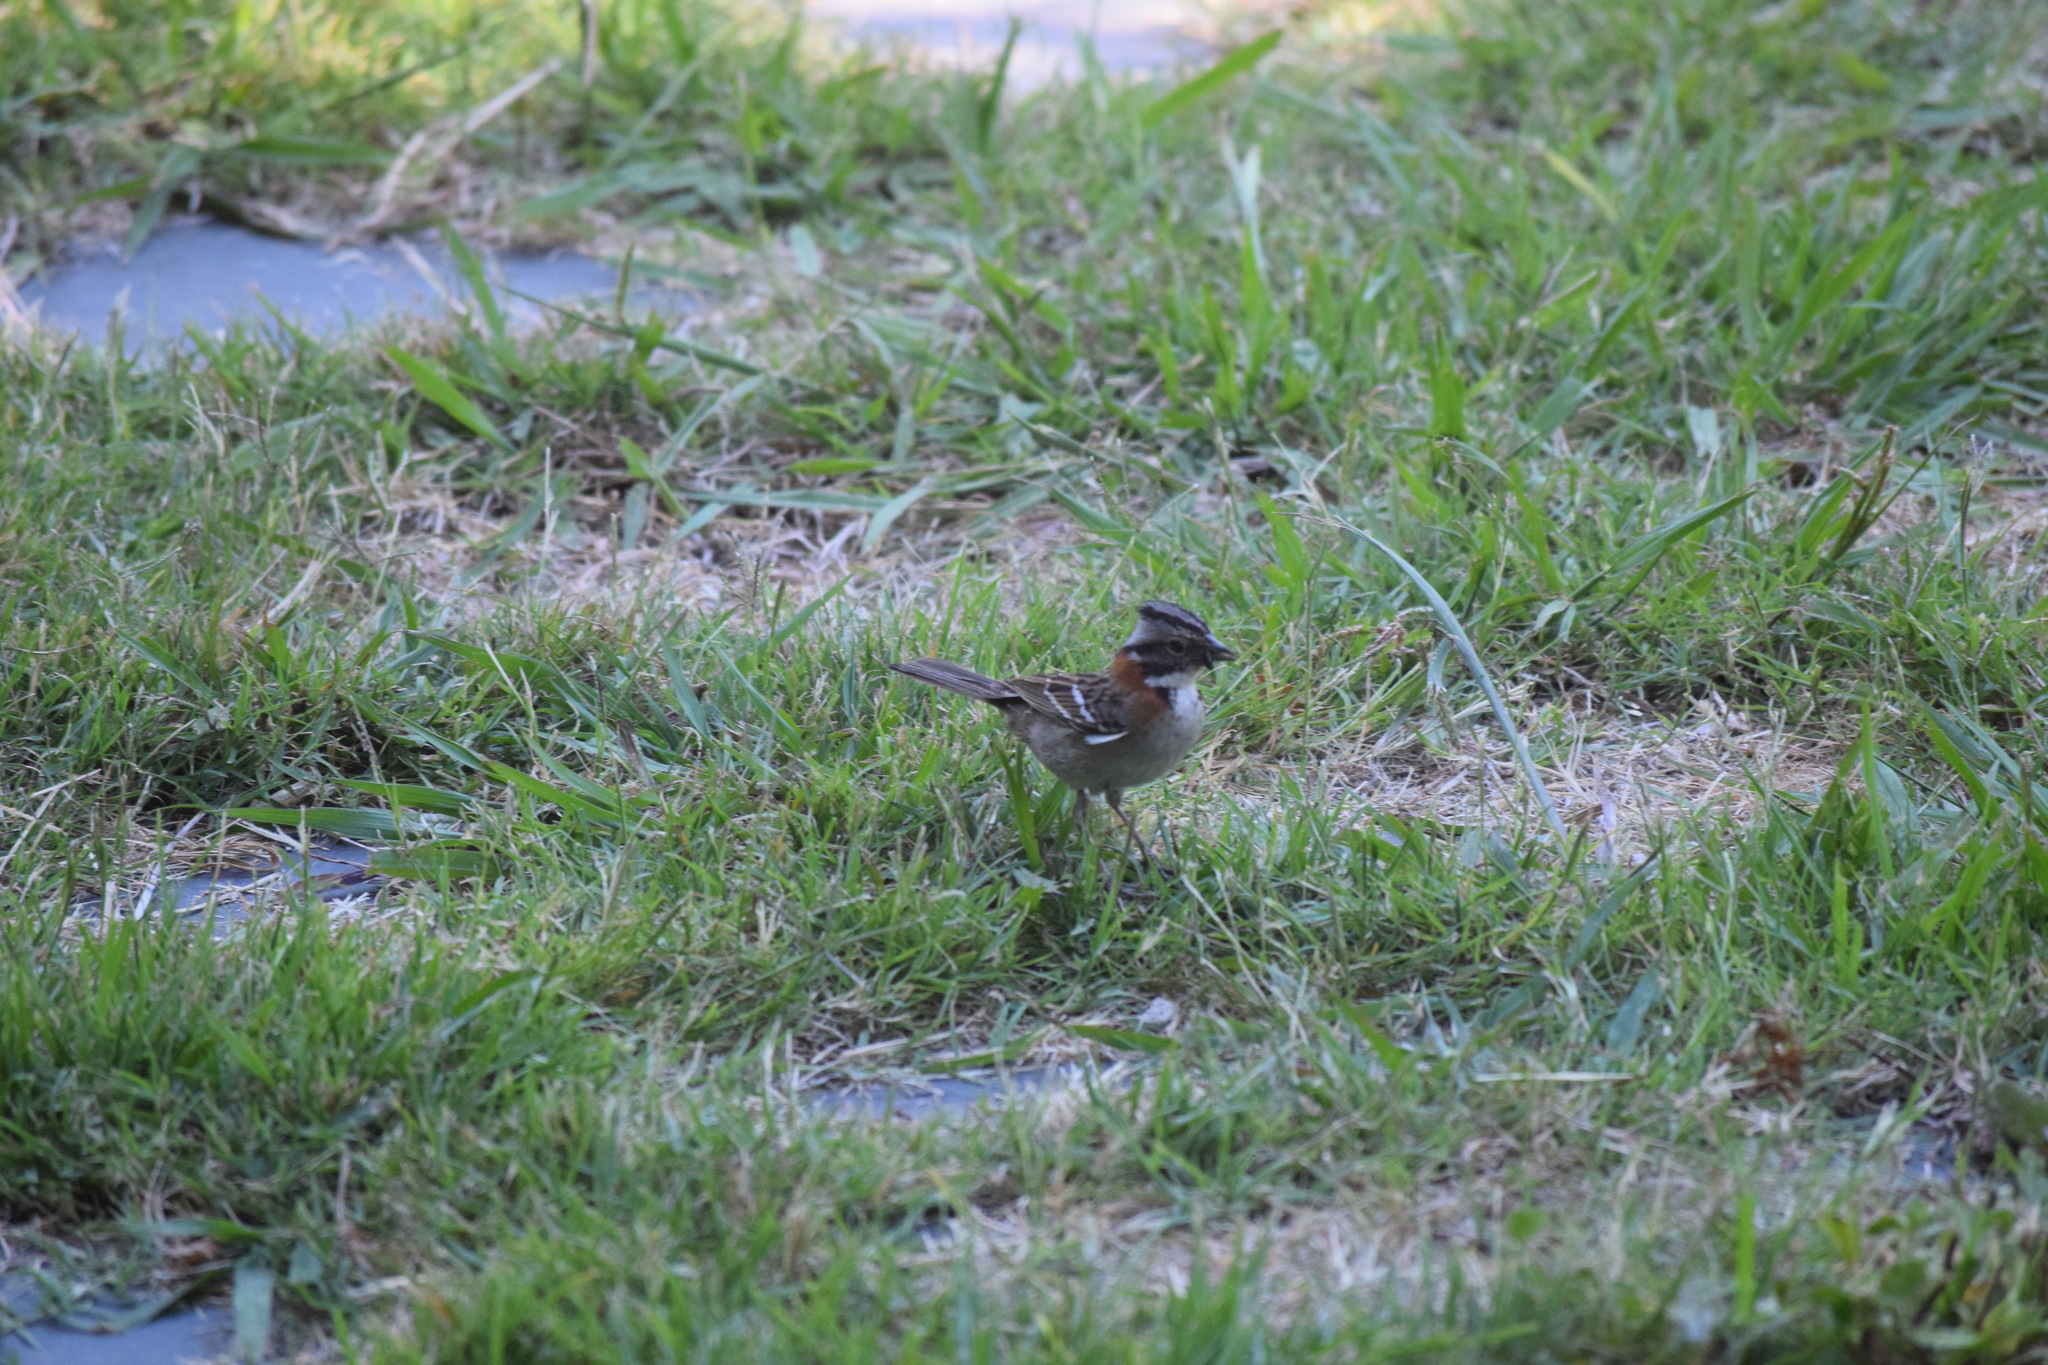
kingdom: Animalia
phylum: Chordata
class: Aves
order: Passeriformes
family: Passerellidae
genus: Zonotrichia
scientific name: Zonotrichia capensis
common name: Rufous-collared sparrow
